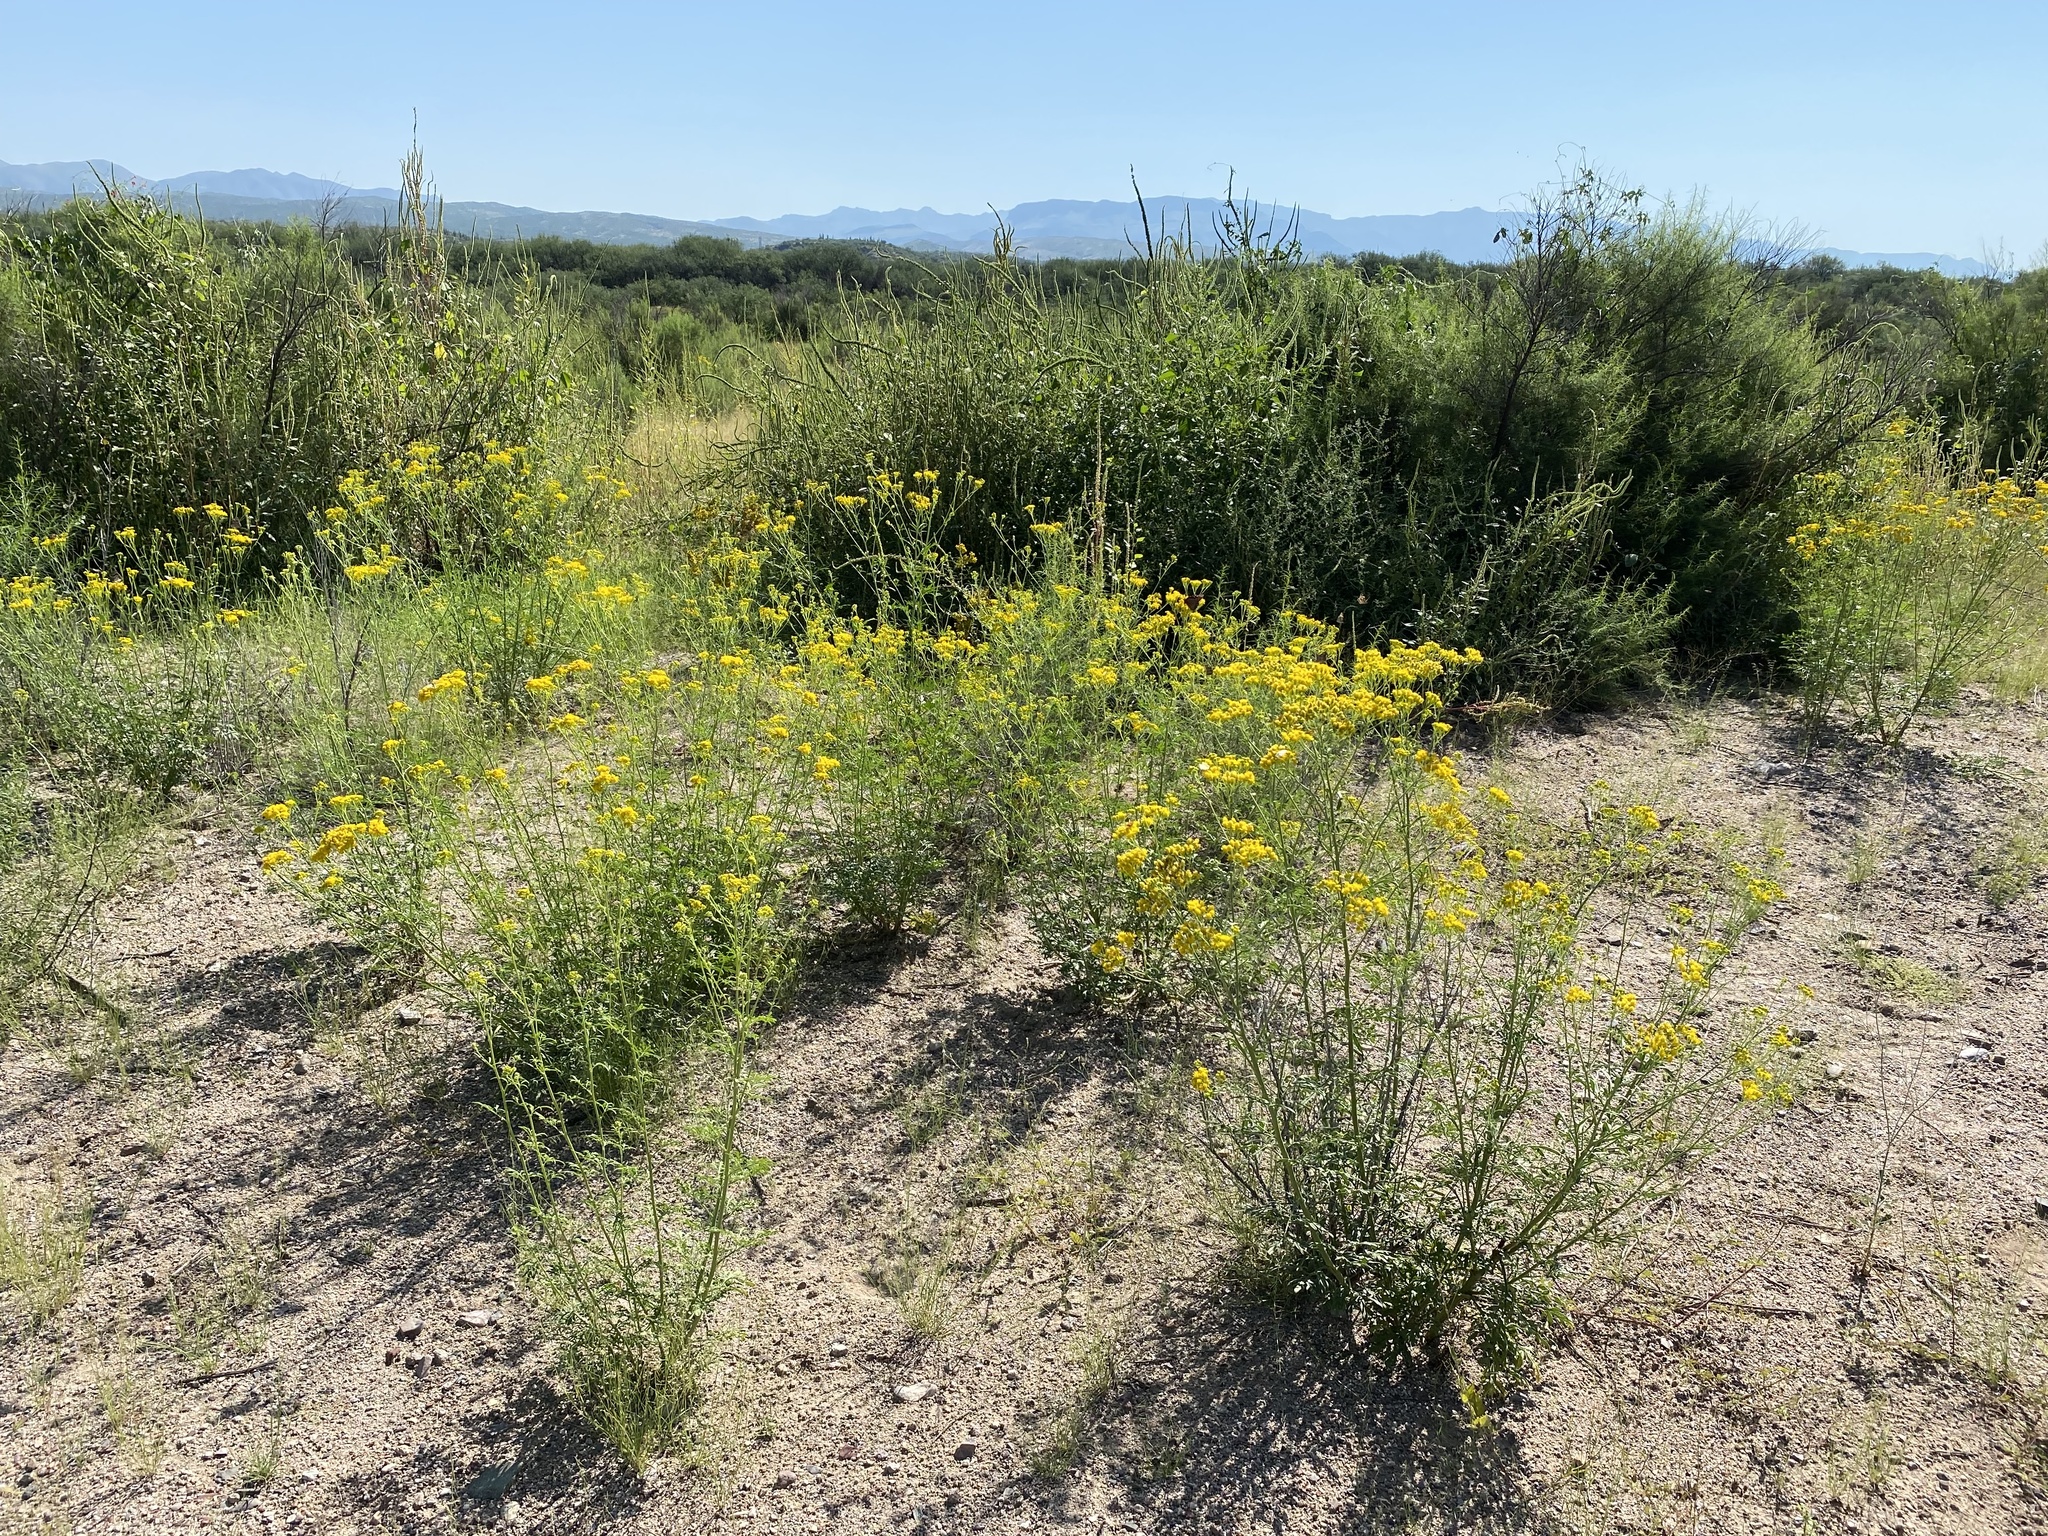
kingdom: Plantae
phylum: Tracheophyta
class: Magnoliopsida
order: Asterales
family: Asteraceae
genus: Hymenothrix
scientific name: Hymenothrix wislizeni
